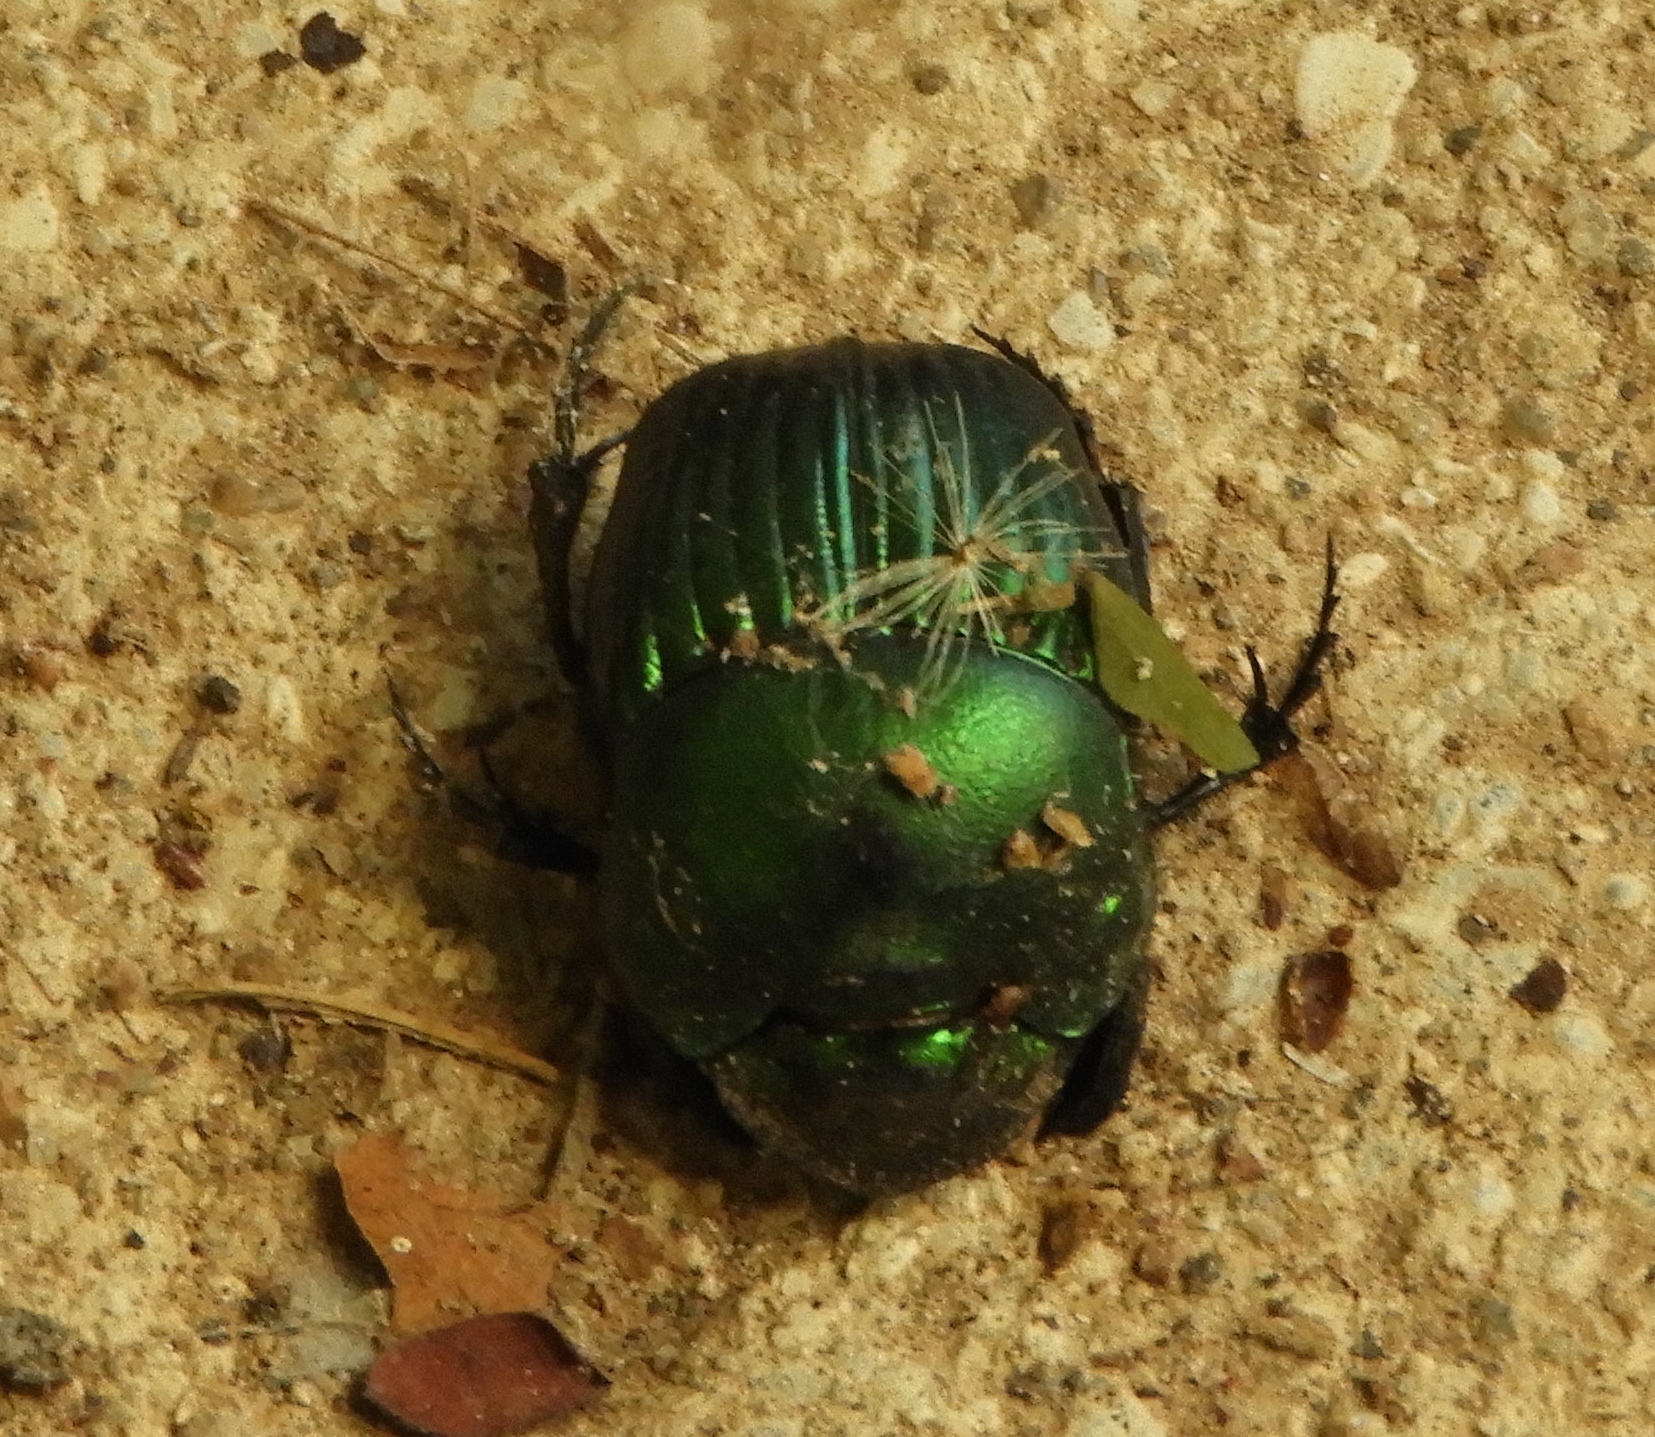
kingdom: Animalia
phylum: Arthropoda
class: Insecta
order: Coleoptera
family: Scarabaeidae
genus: Phanaeus
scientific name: Phanaeus furiosus
